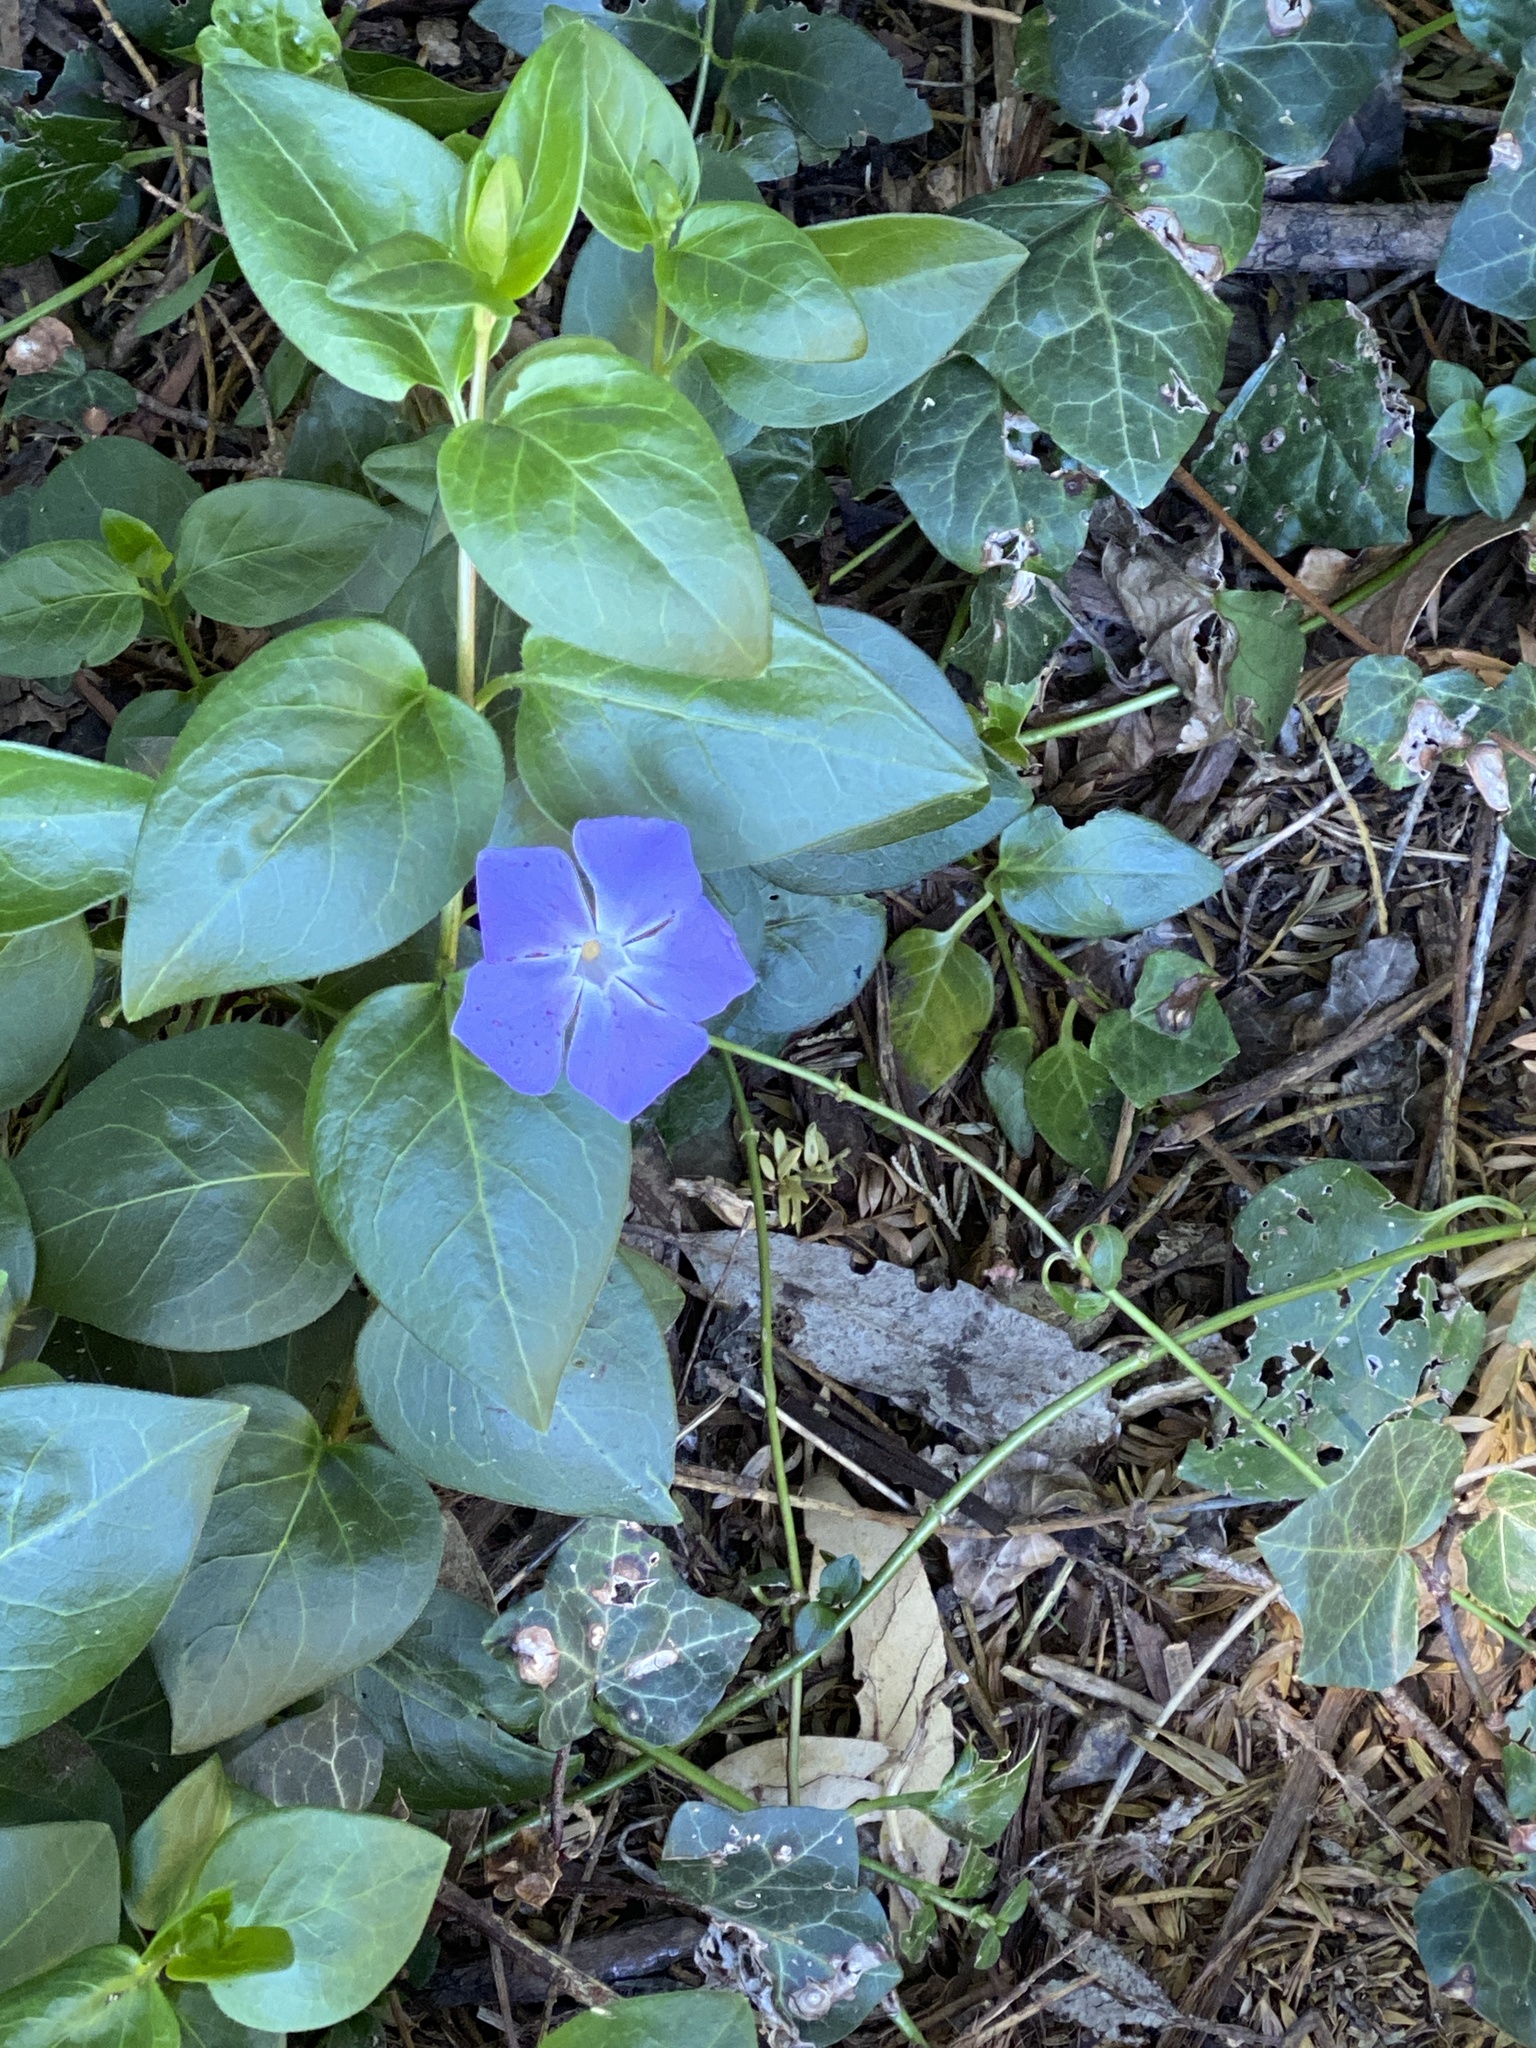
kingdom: Plantae
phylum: Tracheophyta
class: Magnoliopsida
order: Gentianales
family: Apocynaceae
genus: Vinca
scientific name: Vinca major
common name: Greater periwinkle
